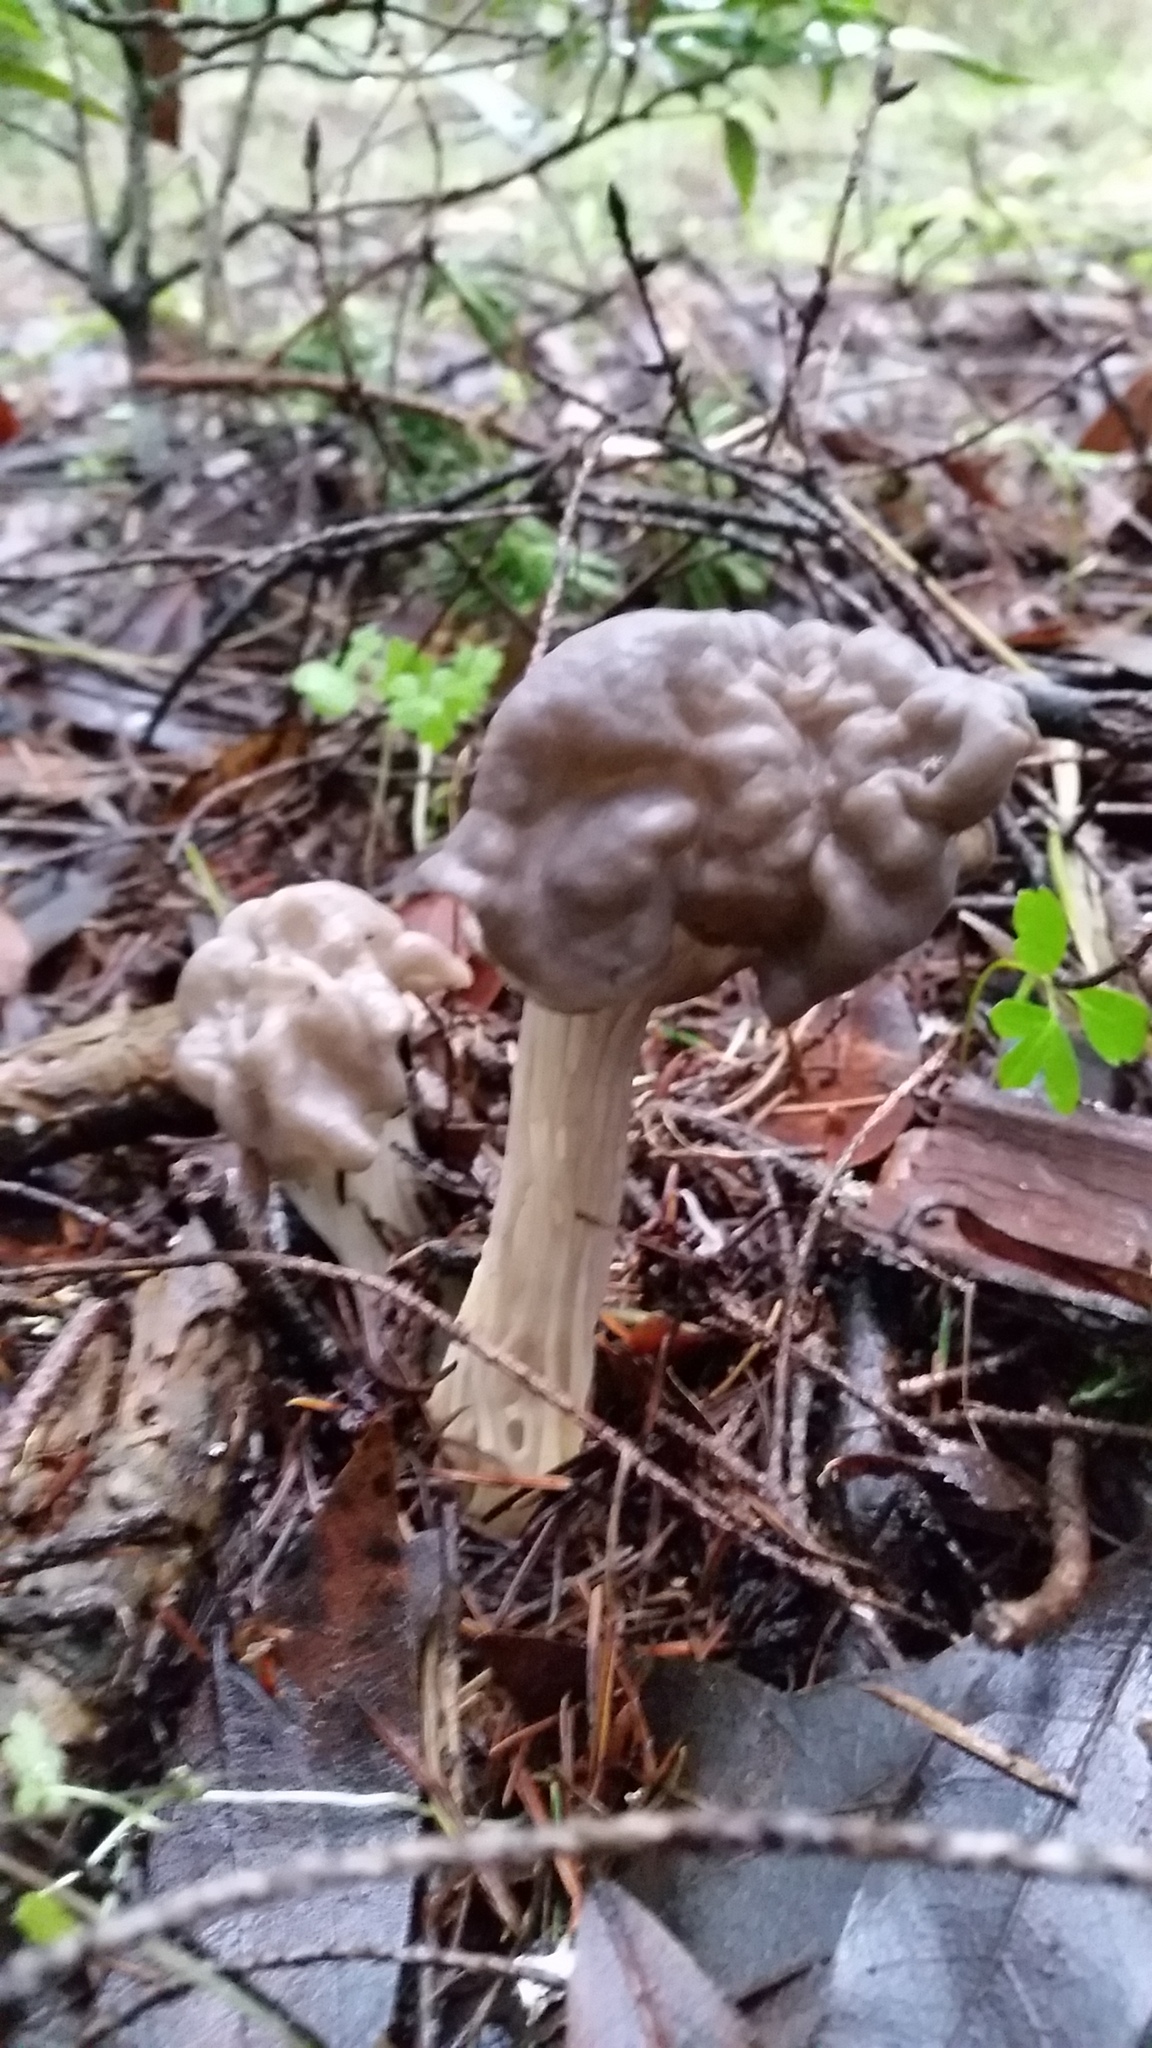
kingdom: Fungi
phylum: Ascomycota
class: Pezizomycetes
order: Pezizales
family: Helvellaceae
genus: Helvella
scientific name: Helvella vespertina
